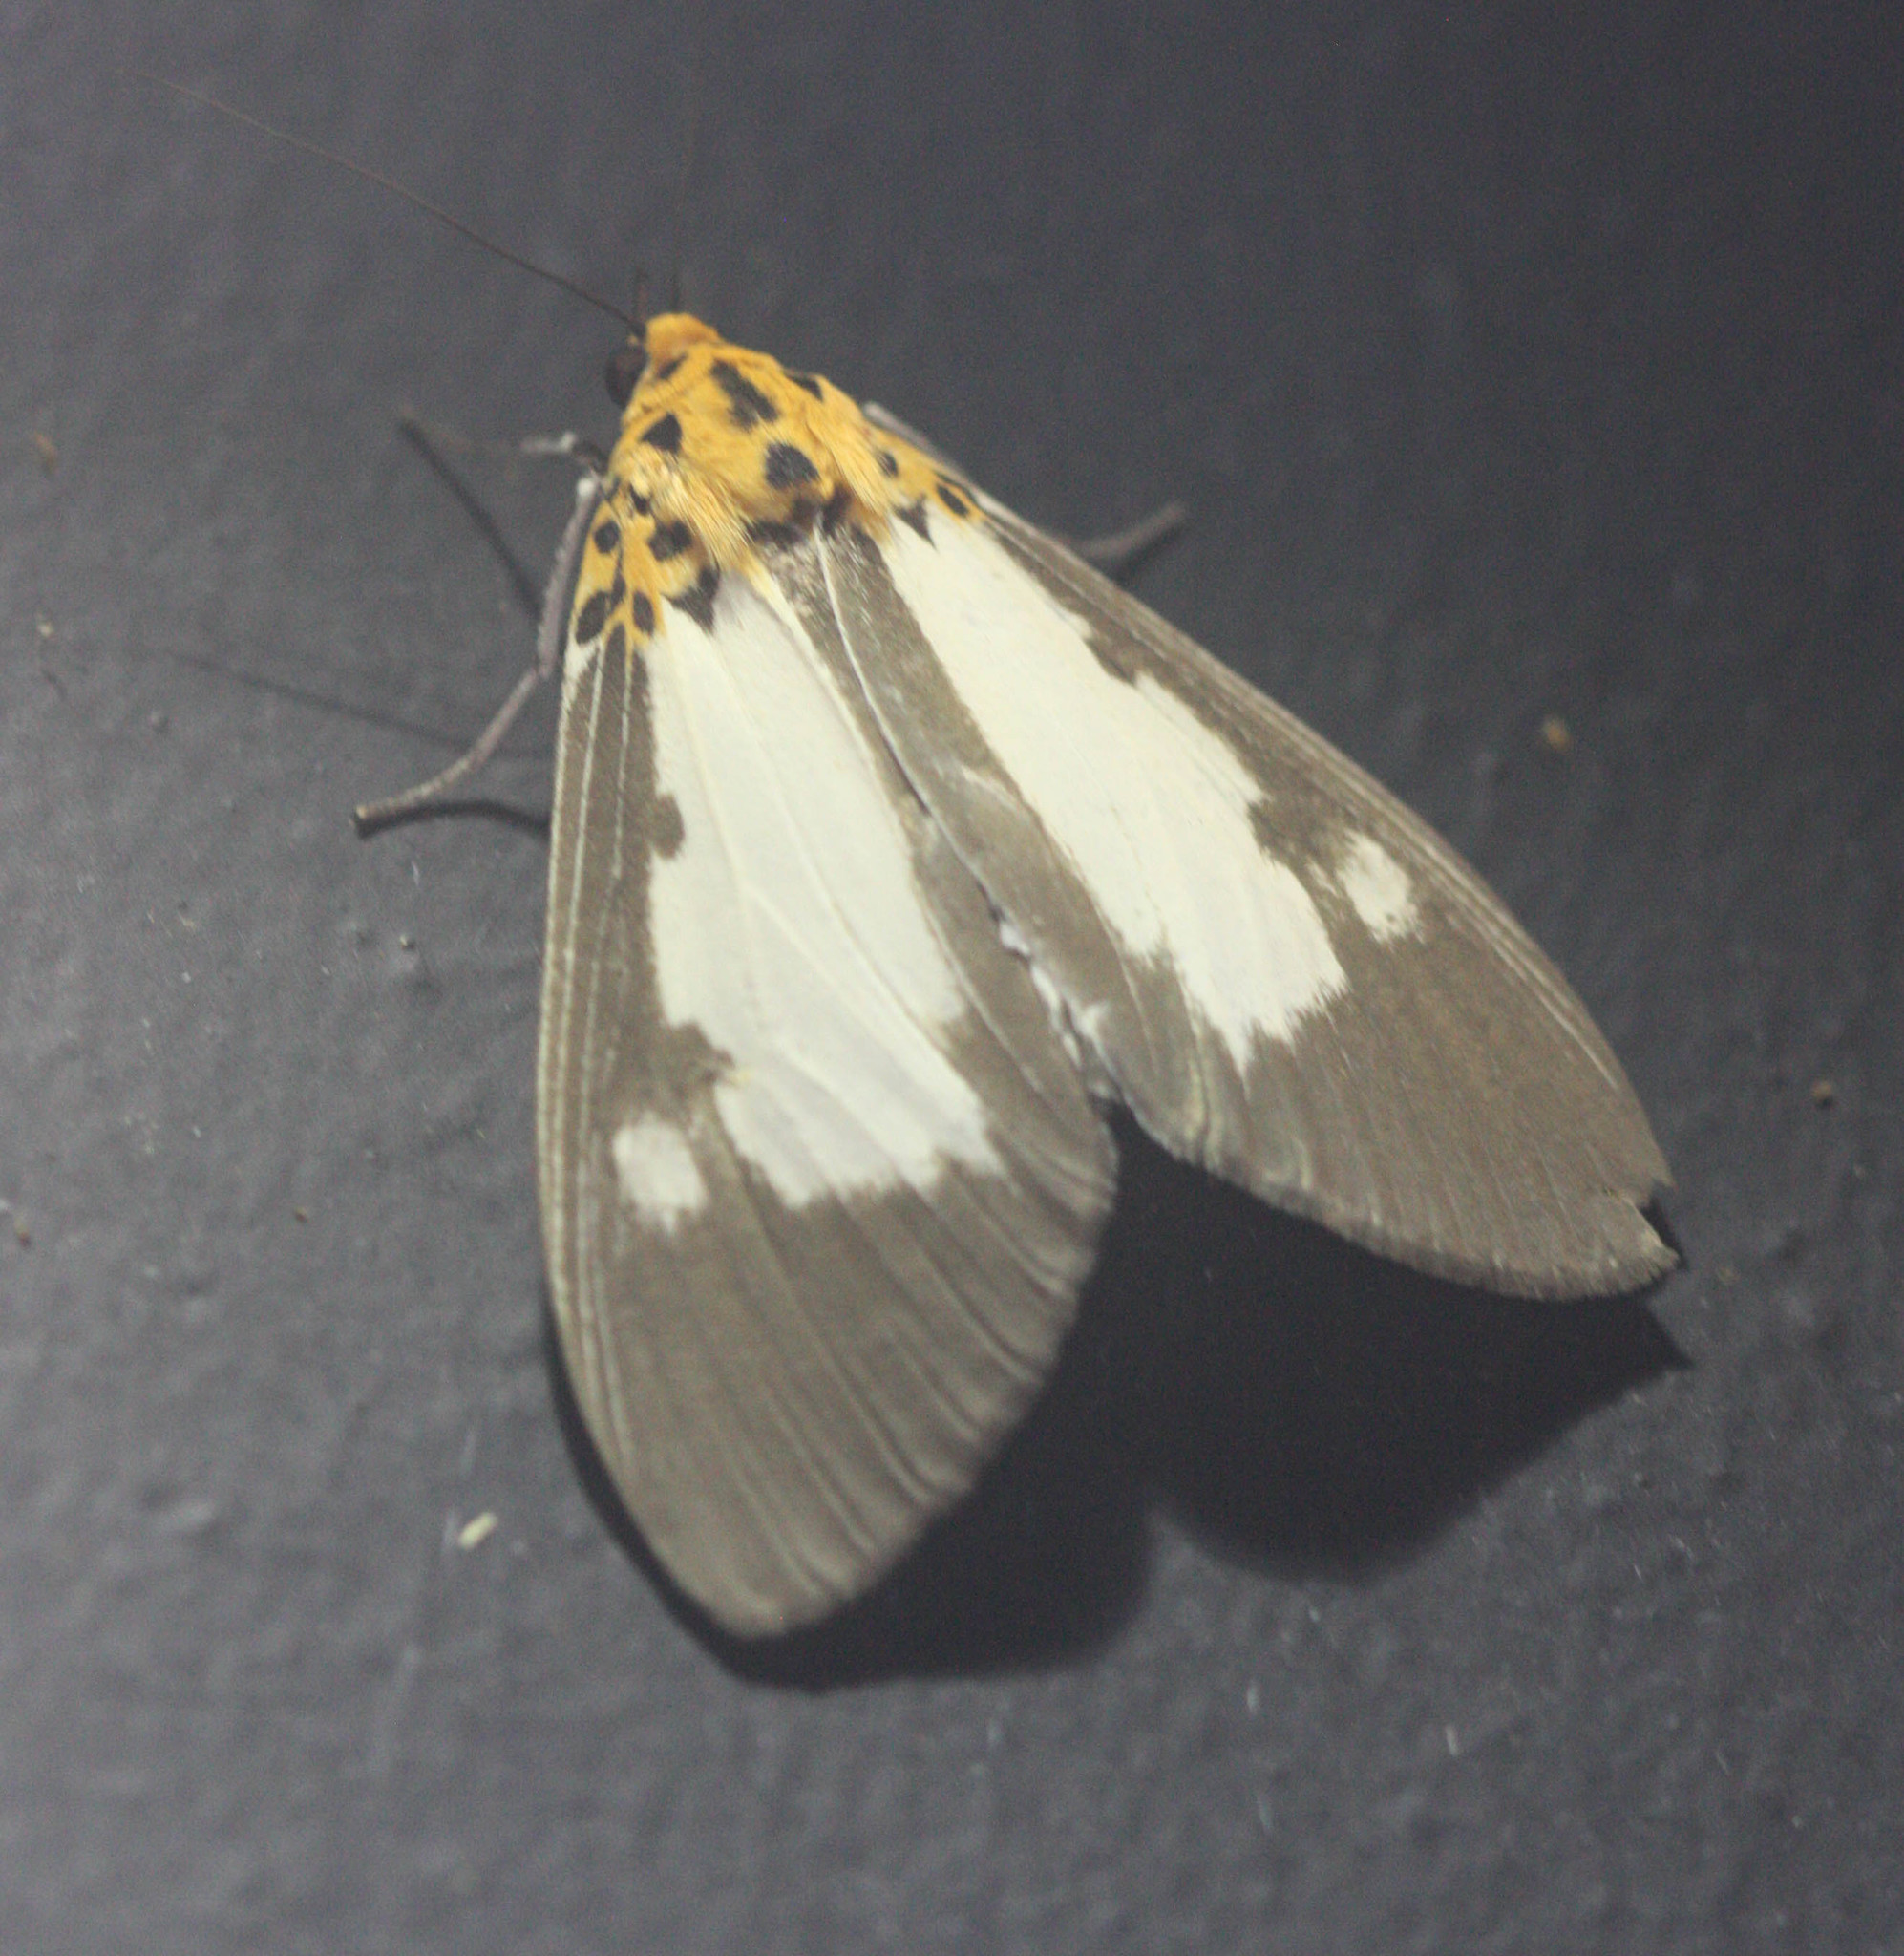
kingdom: Animalia
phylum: Arthropoda
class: Insecta
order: Lepidoptera
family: Erebidae
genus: Asota
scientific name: Asota plana
